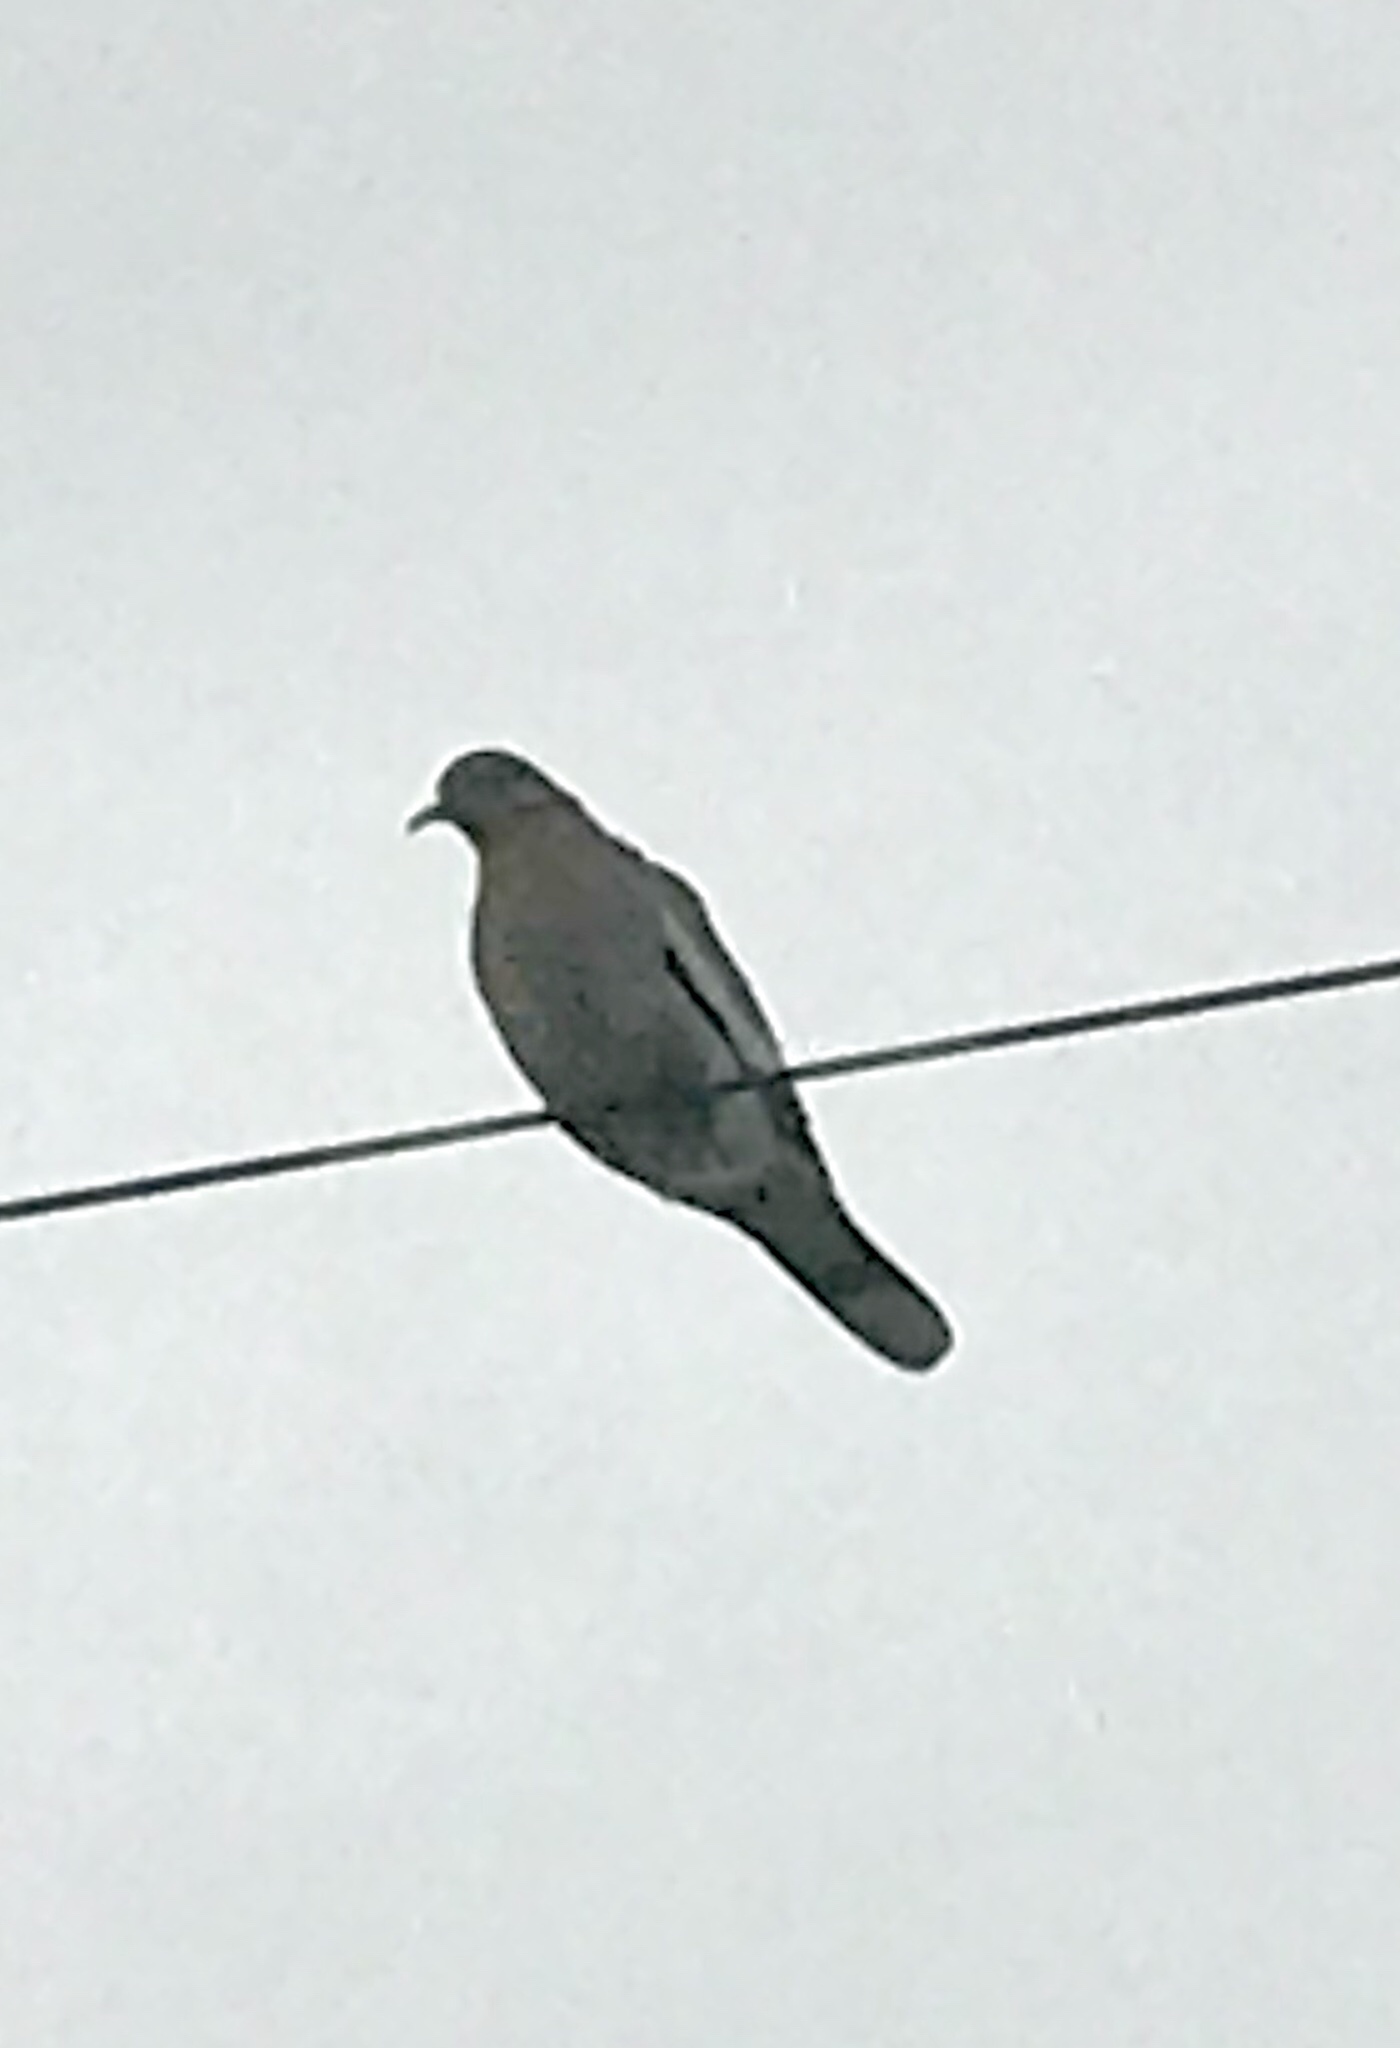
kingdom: Animalia
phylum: Chordata
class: Aves
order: Columbiformes
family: Columbidae
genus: Zenaida
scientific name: Zenaida asiatica
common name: White-winged dove
